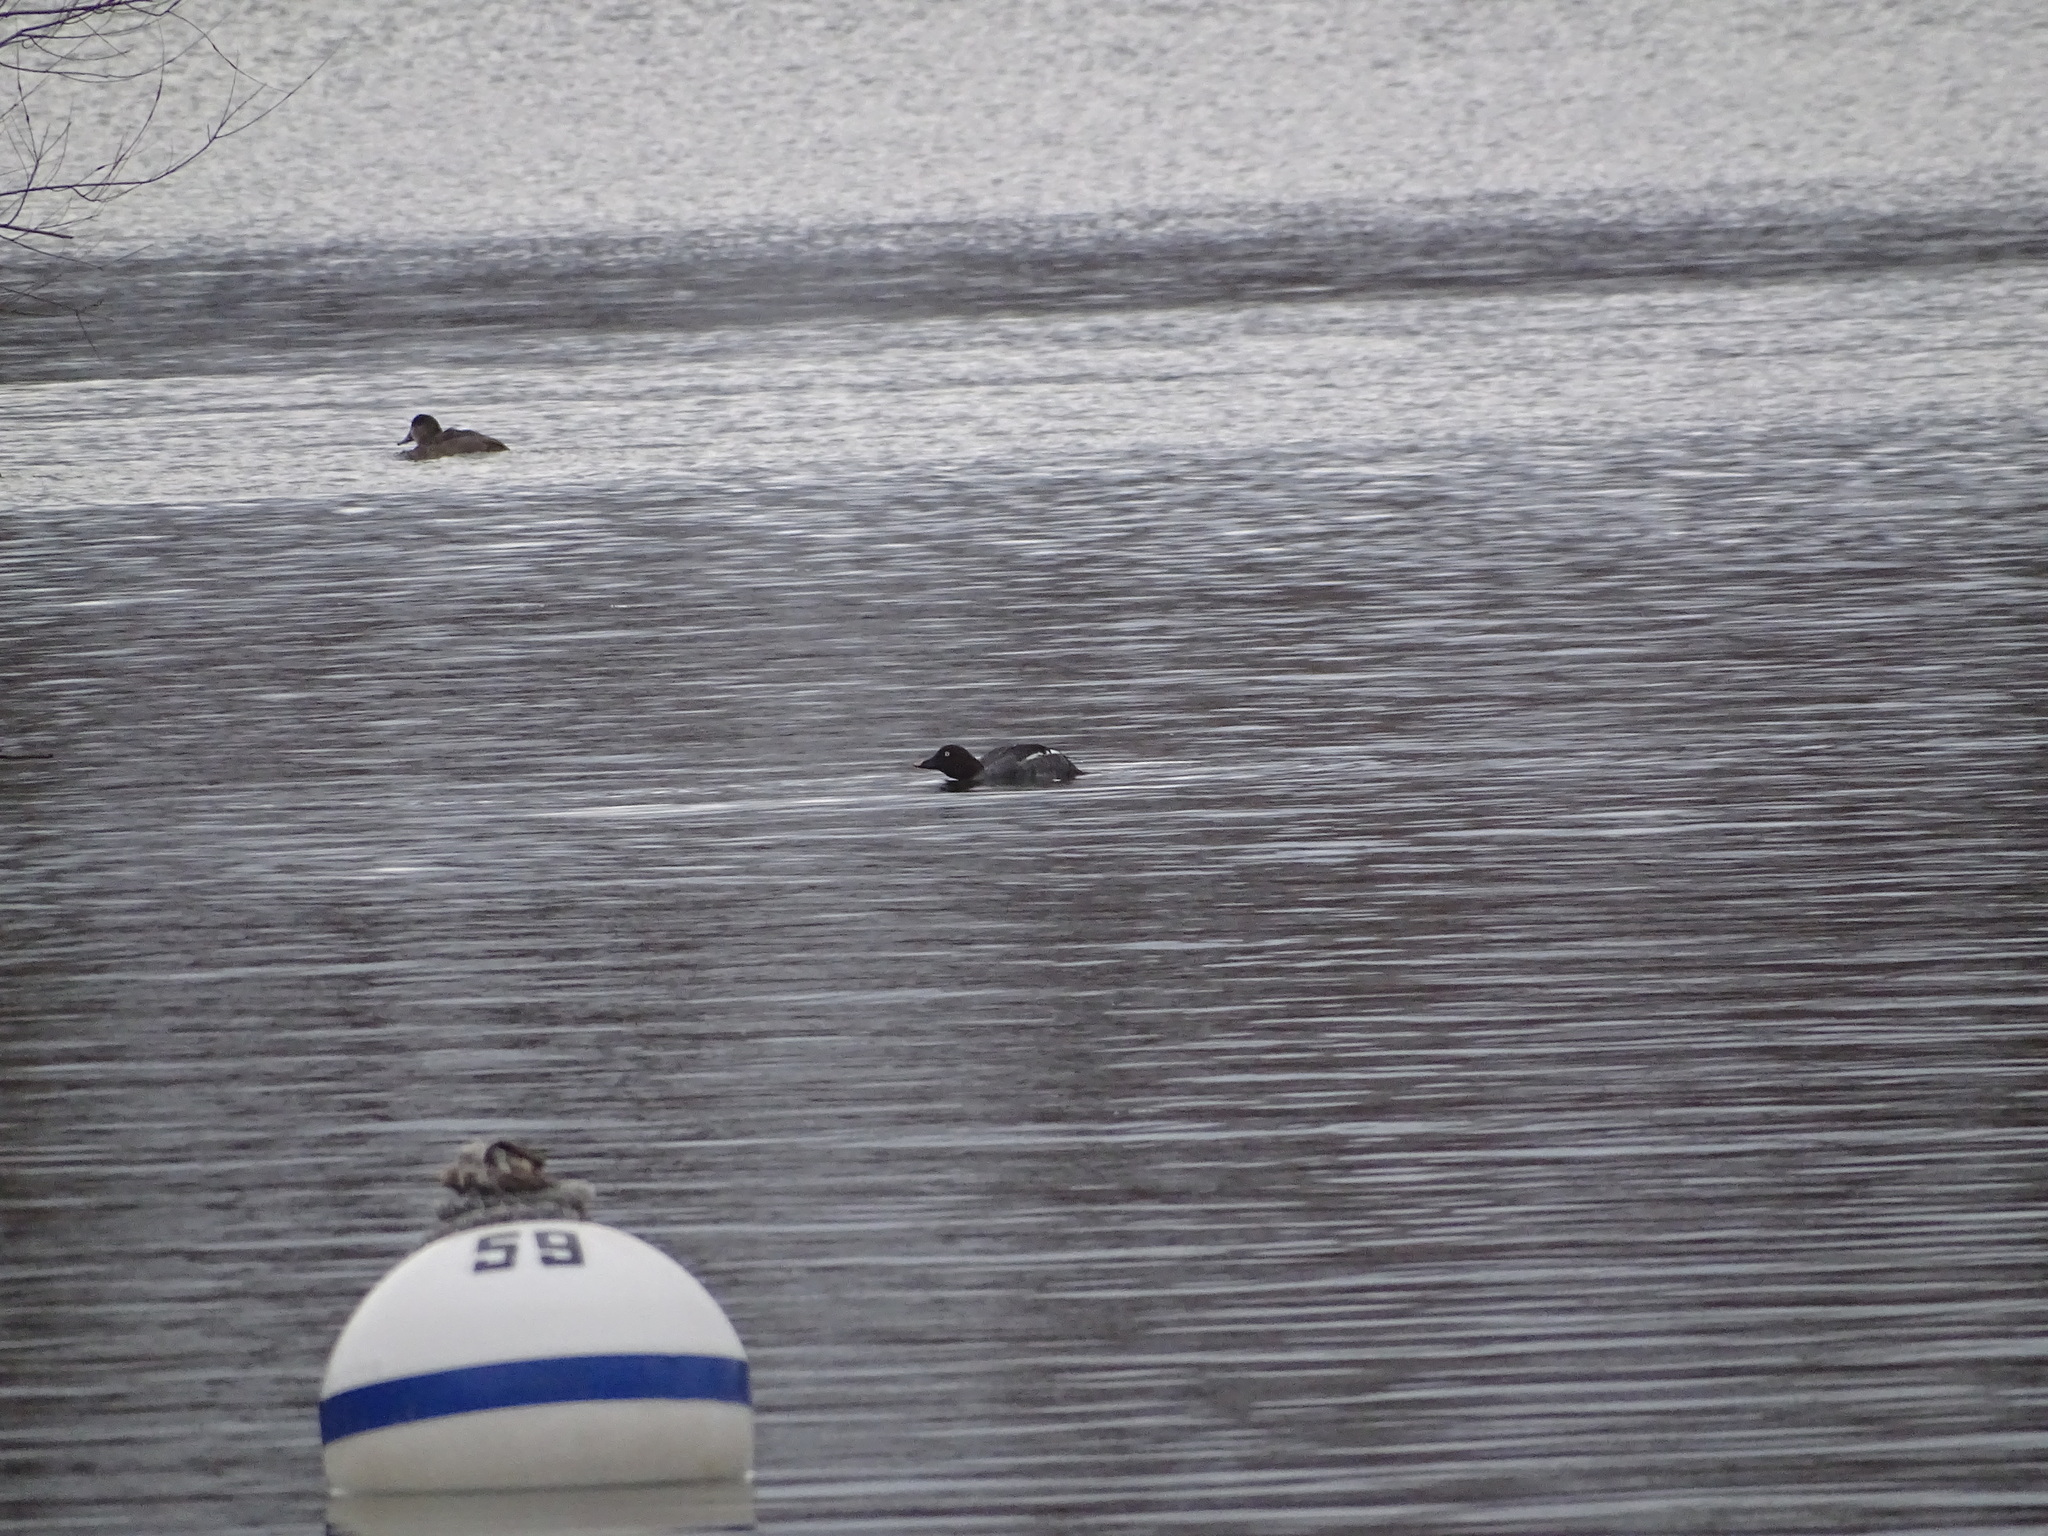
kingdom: Animalia
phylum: Chordata
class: Aves
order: Anseriformes
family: Anatidae
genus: Bucephala
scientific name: Bucephala clangula
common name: Common goldeneye
